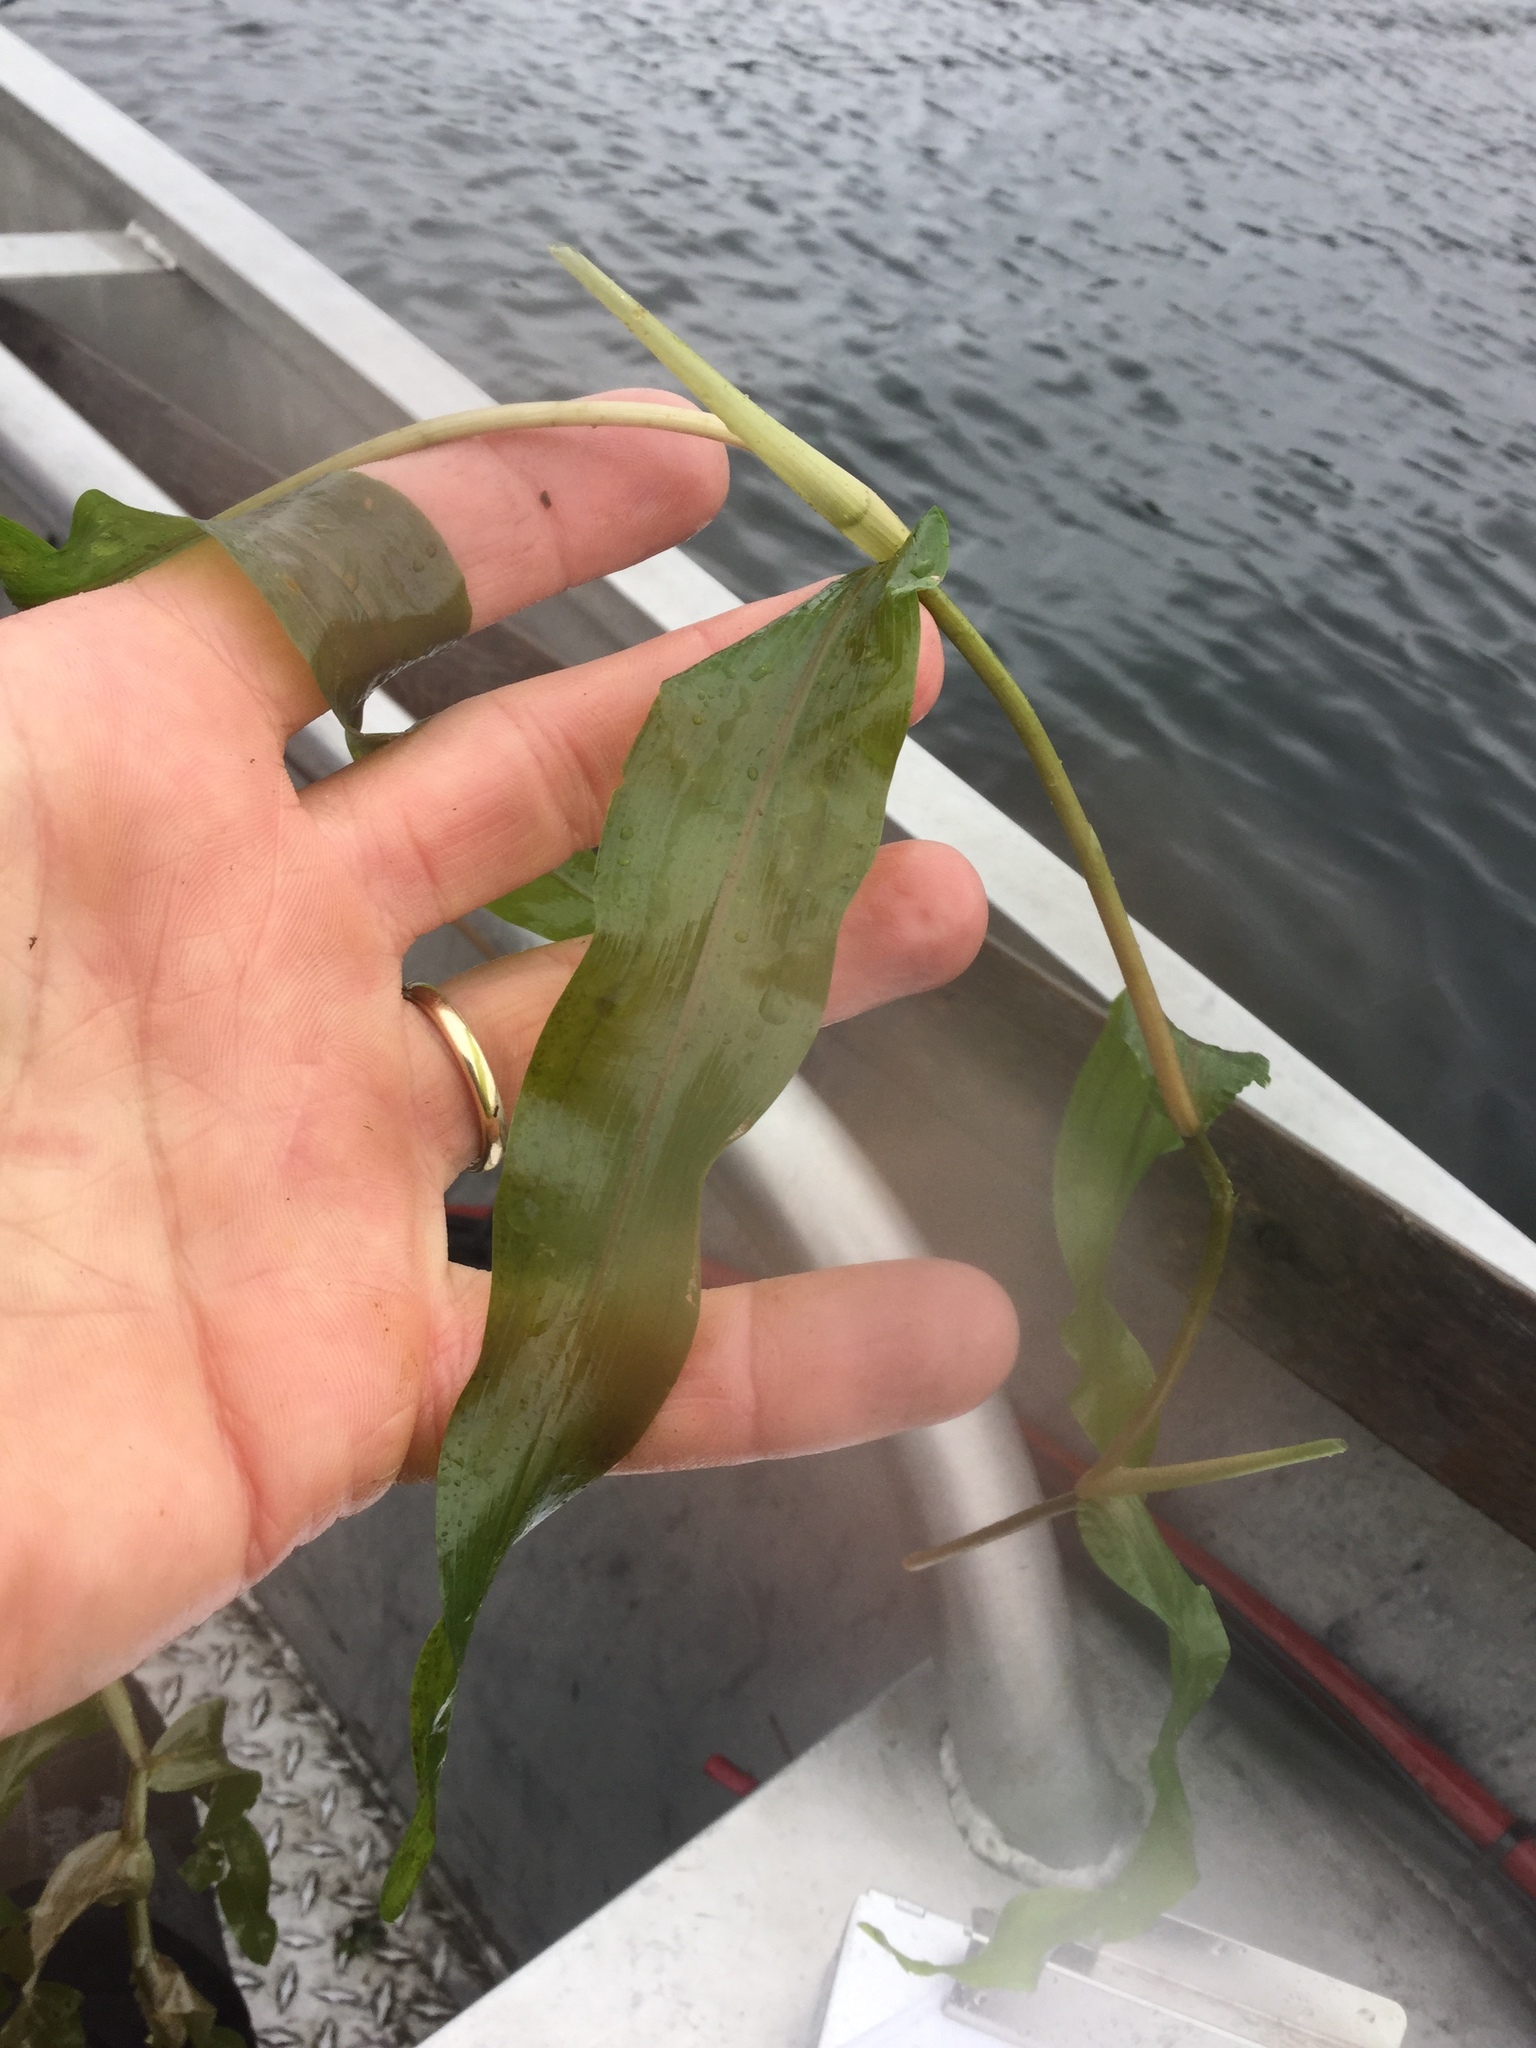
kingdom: Plantae
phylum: Tracheophyta
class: Liliopsida
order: Alismatales
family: Potamogetonaceae
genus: Potamogeton
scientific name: Potamogeton praelongus
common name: Long-stalked pondweed
